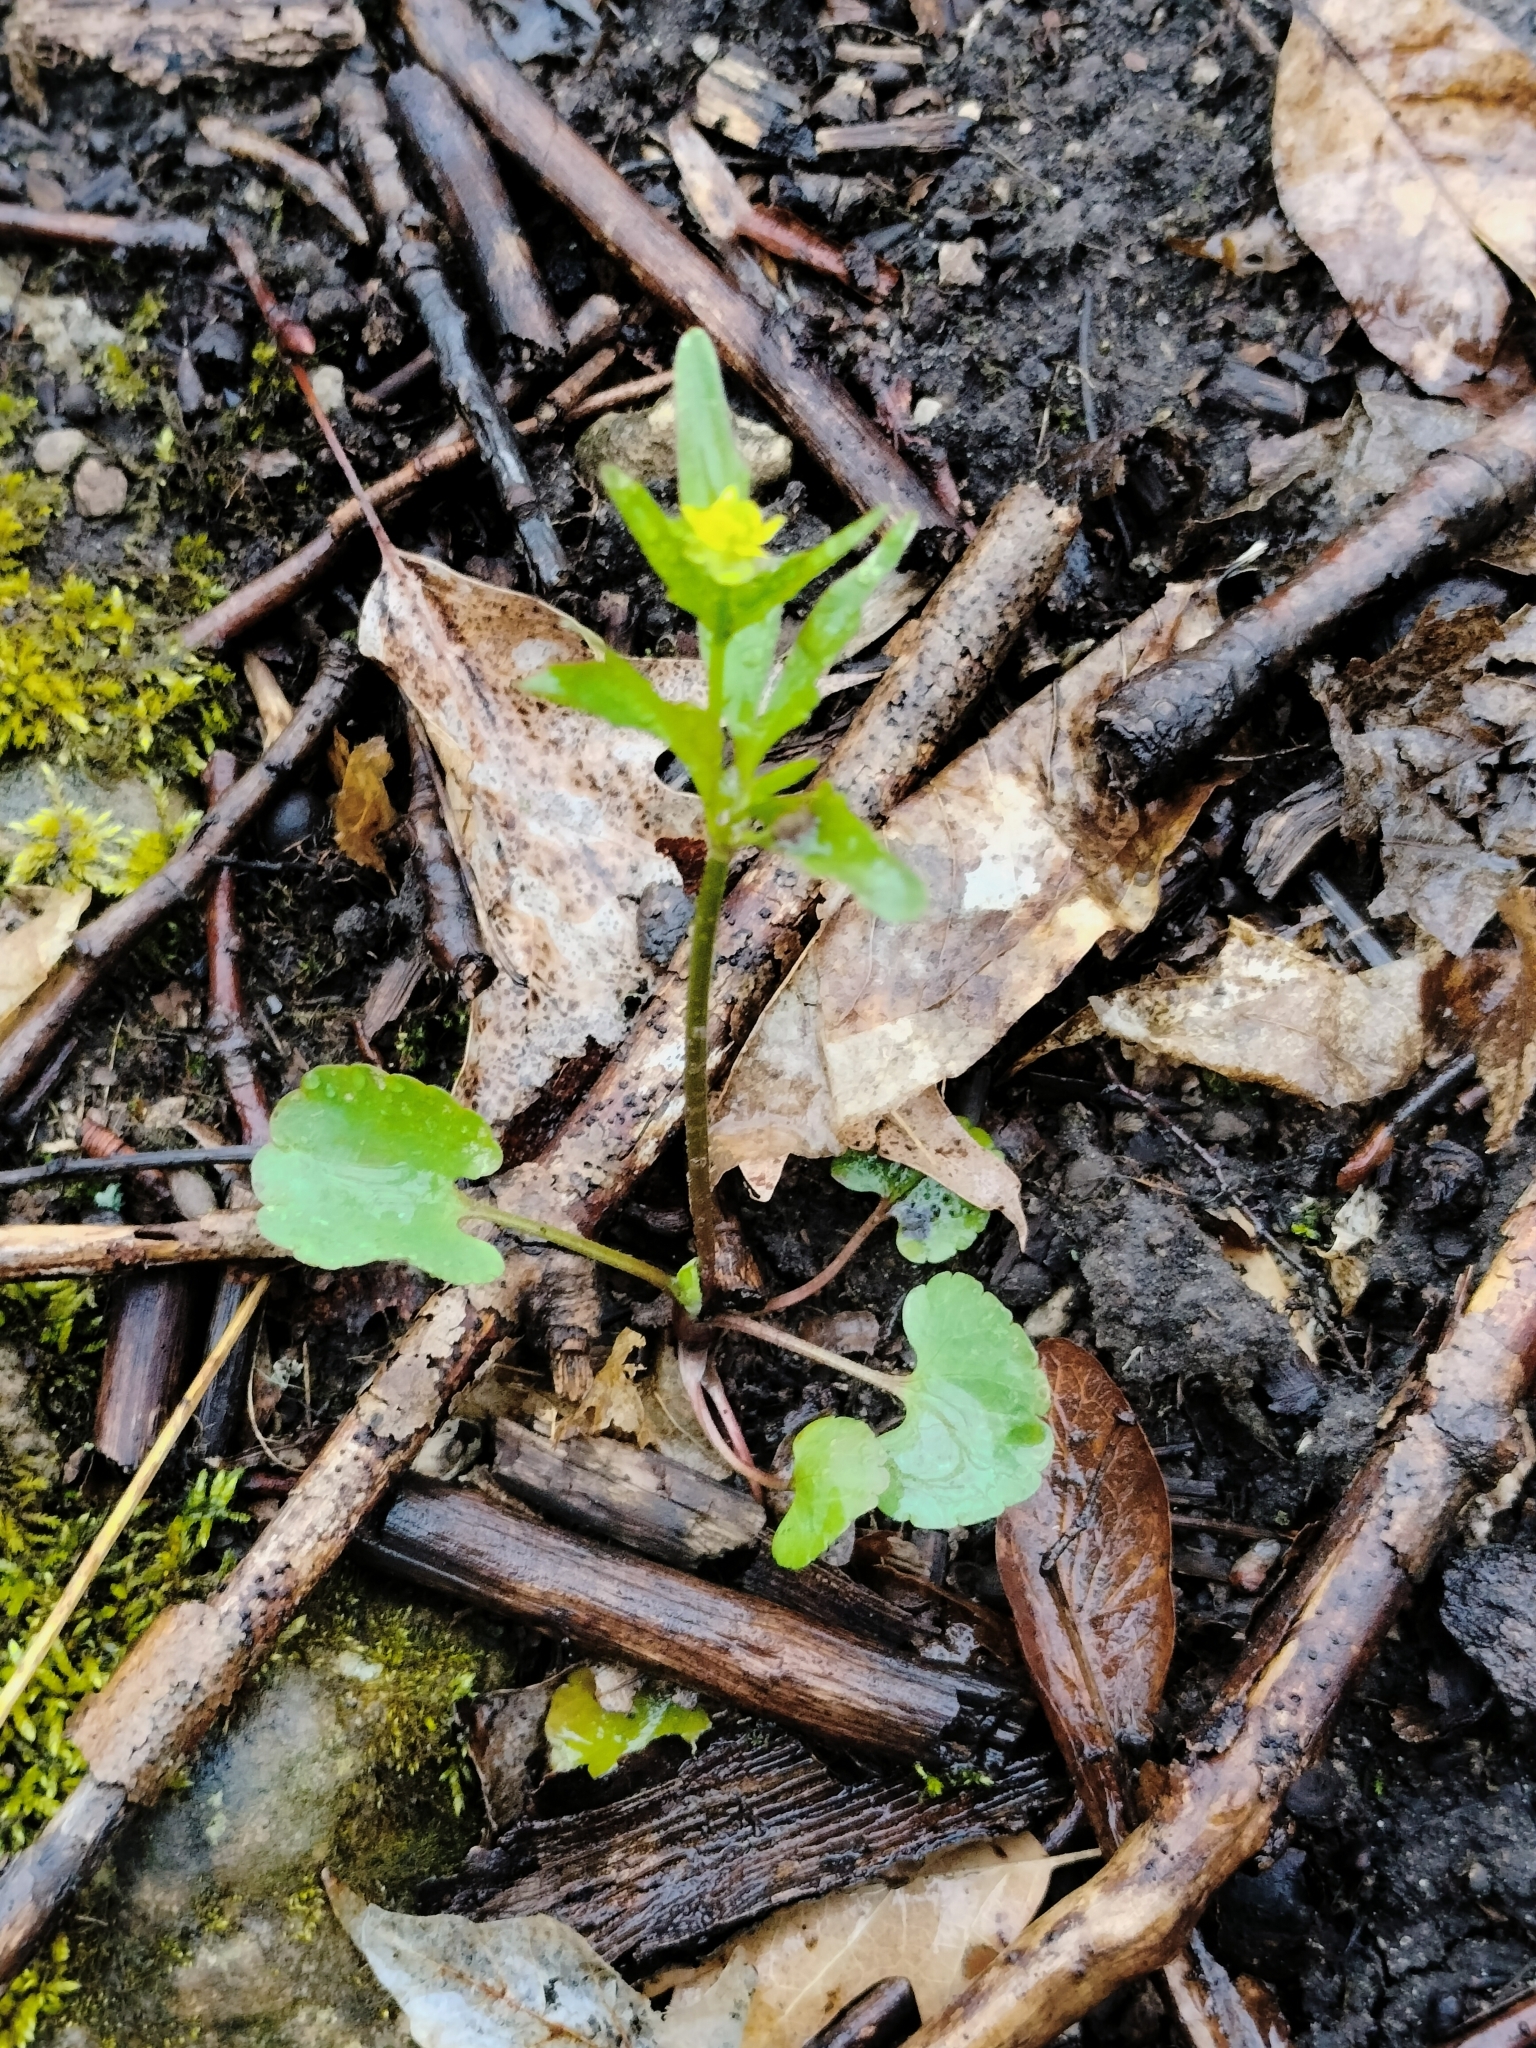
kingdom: Plantae
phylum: Tracheophyta
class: Magnoliopsida
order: Ranunculales
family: Ranunculaceae
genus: Ranunculus
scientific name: Ranunculus abortivus
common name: Early wood buttercup
